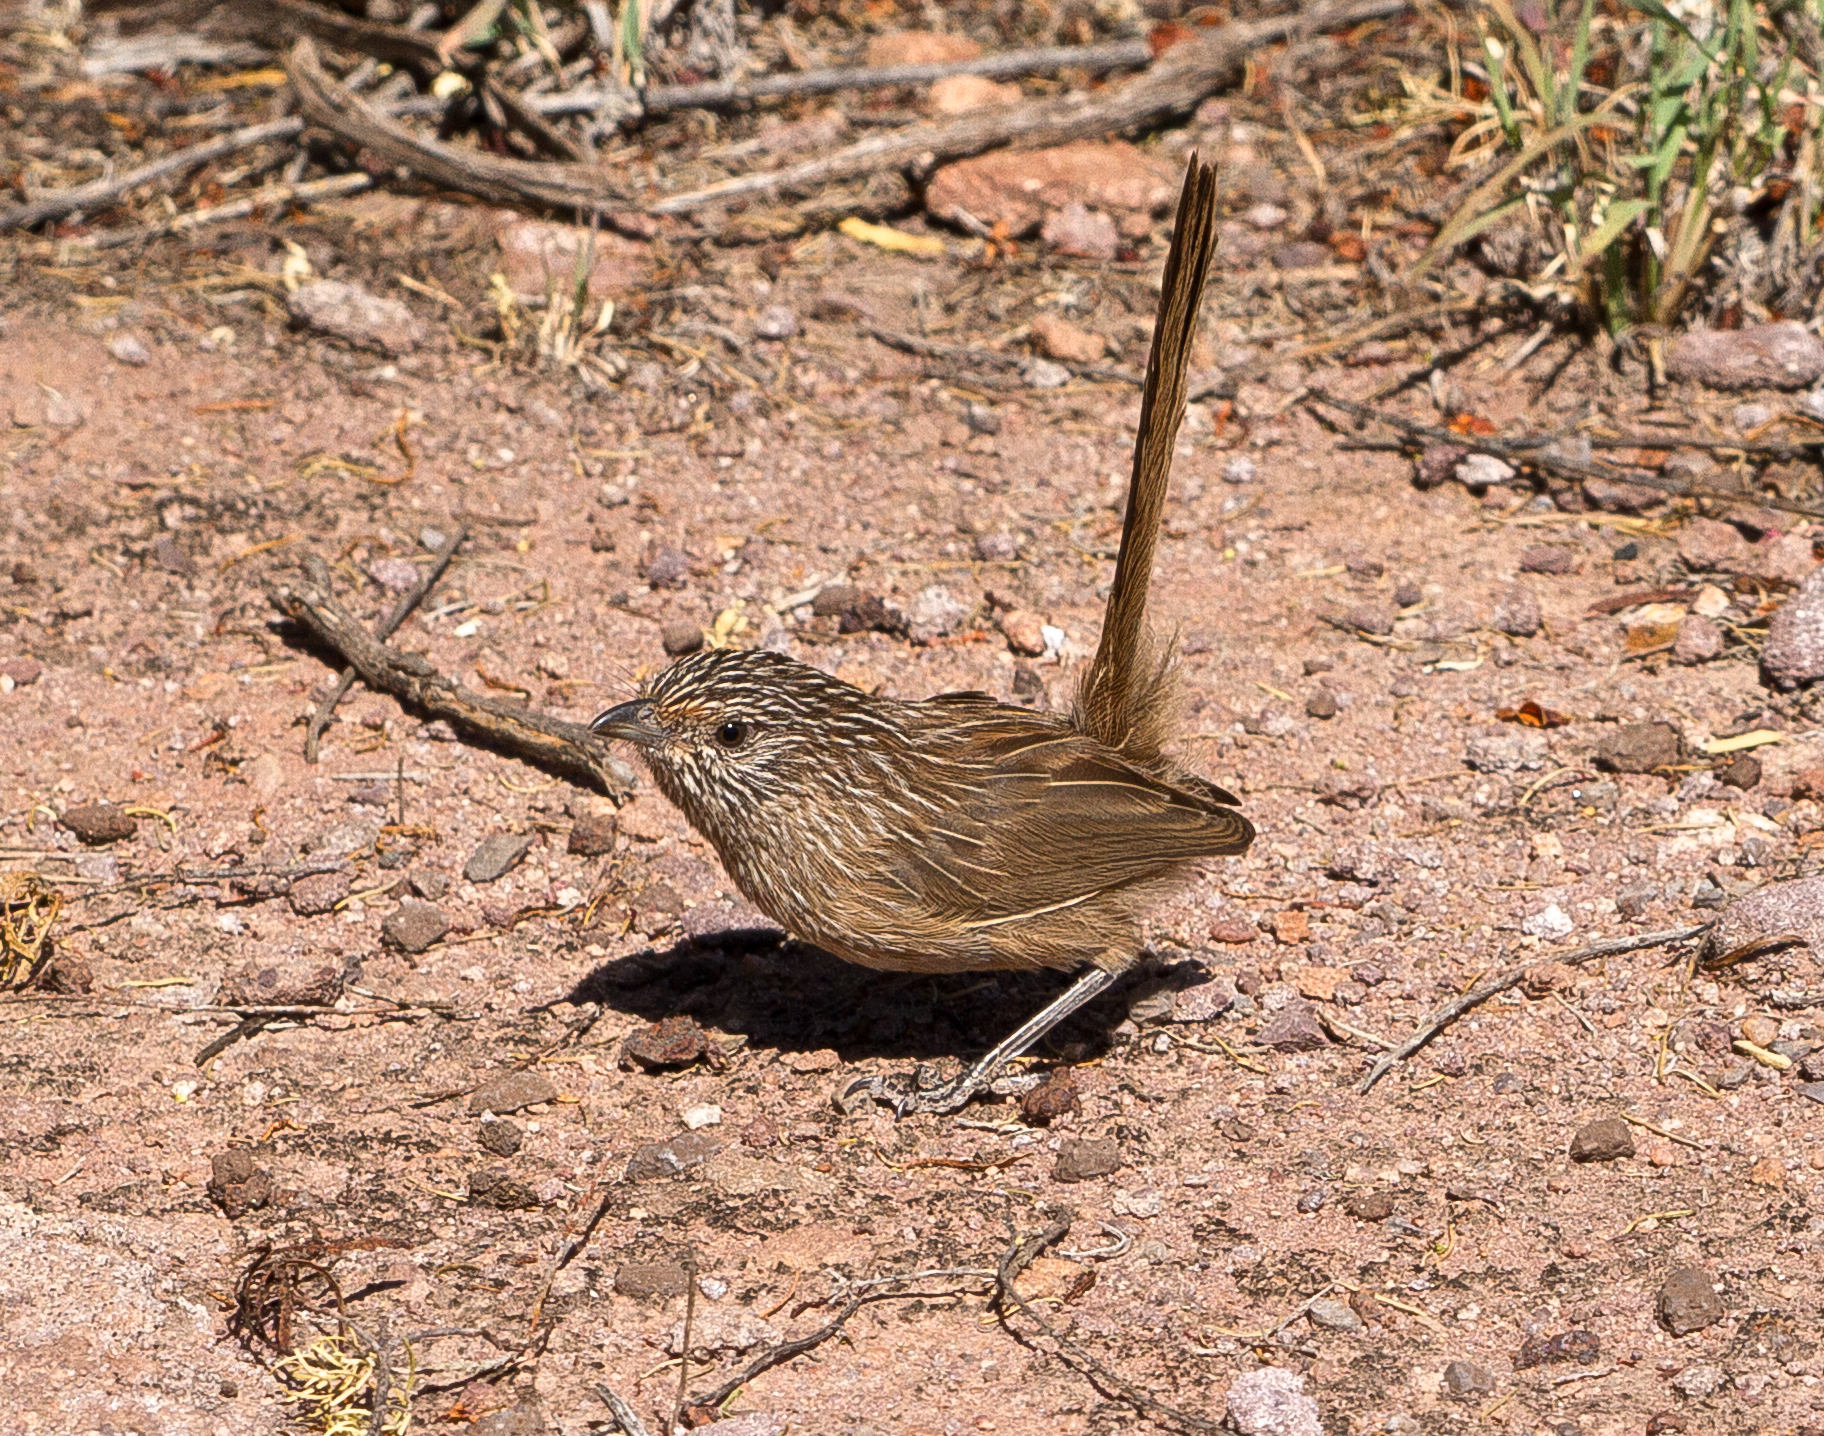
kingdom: Animalia
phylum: Chordata
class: Aves
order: Passeriformes
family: Maluridae
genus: Amytornis
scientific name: Amytornis textilis
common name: Western grasswren
